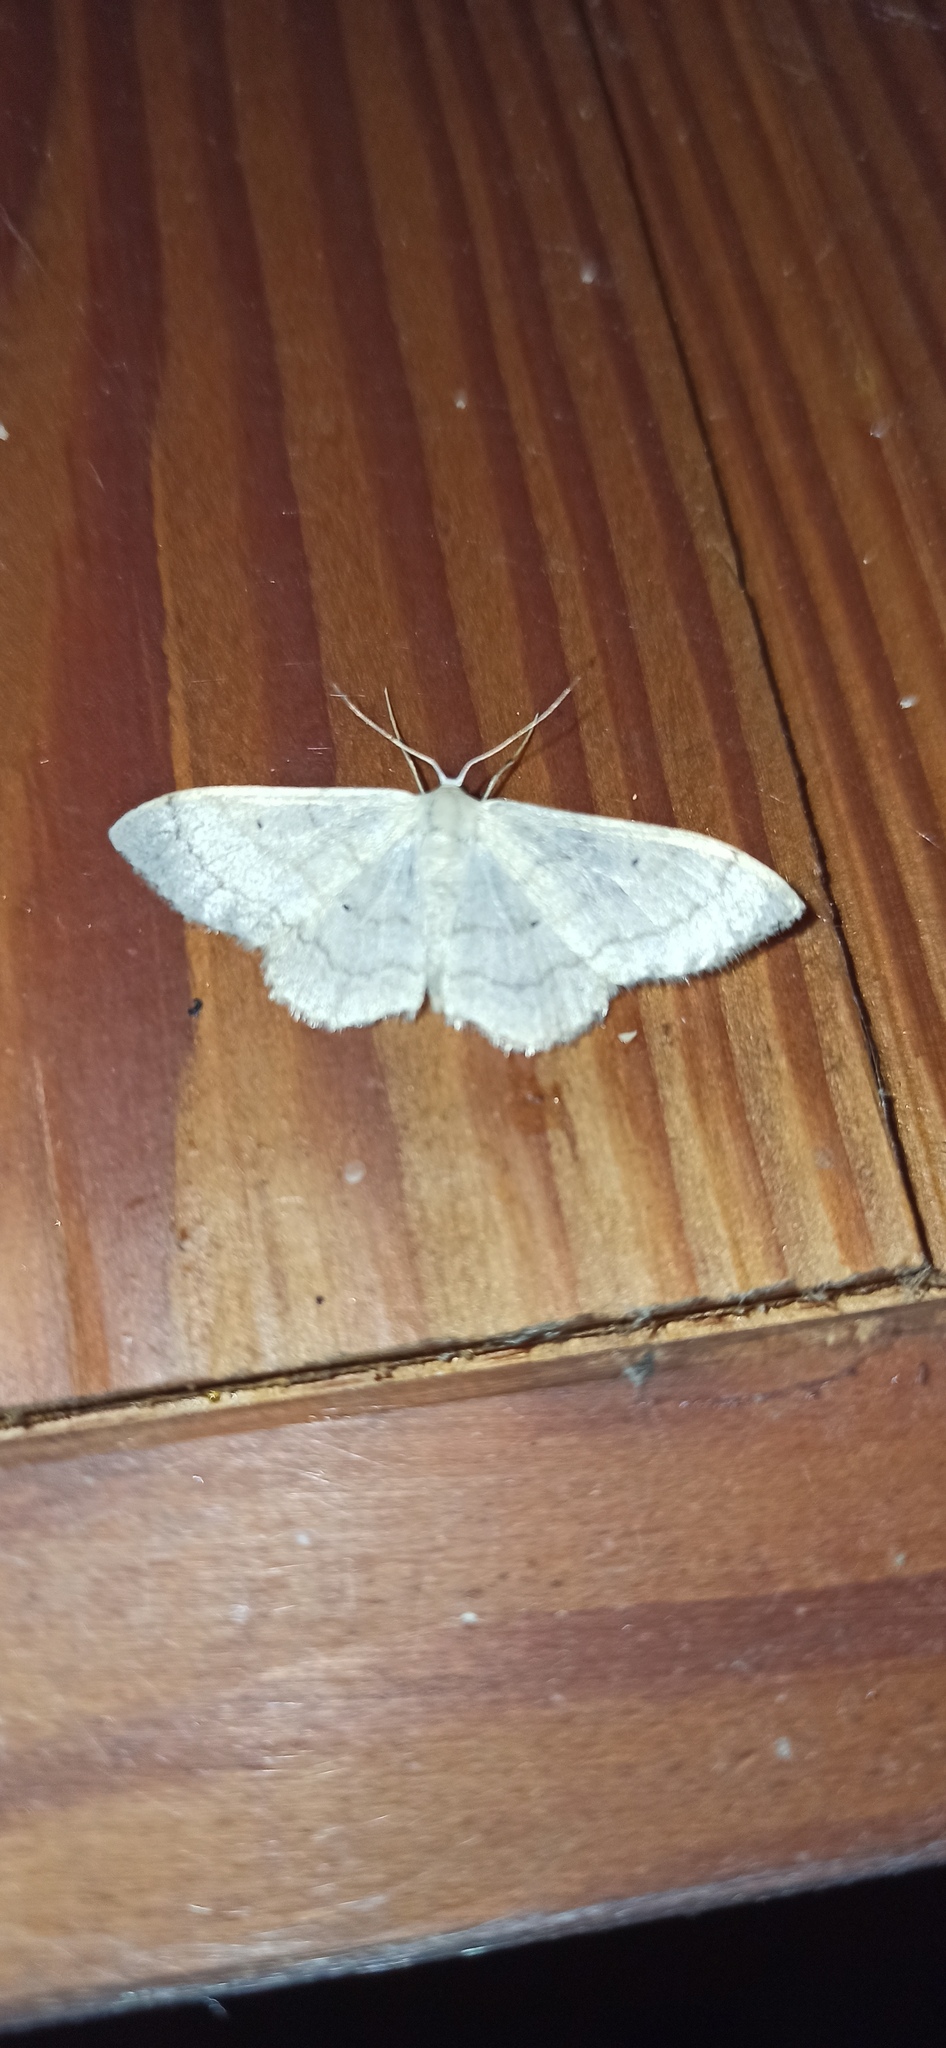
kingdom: Animalia
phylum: Arthropoda
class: Insecta
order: Lepidoptera
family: Geometridae
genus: Idaea
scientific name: Idaea straminata
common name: Plain wave
